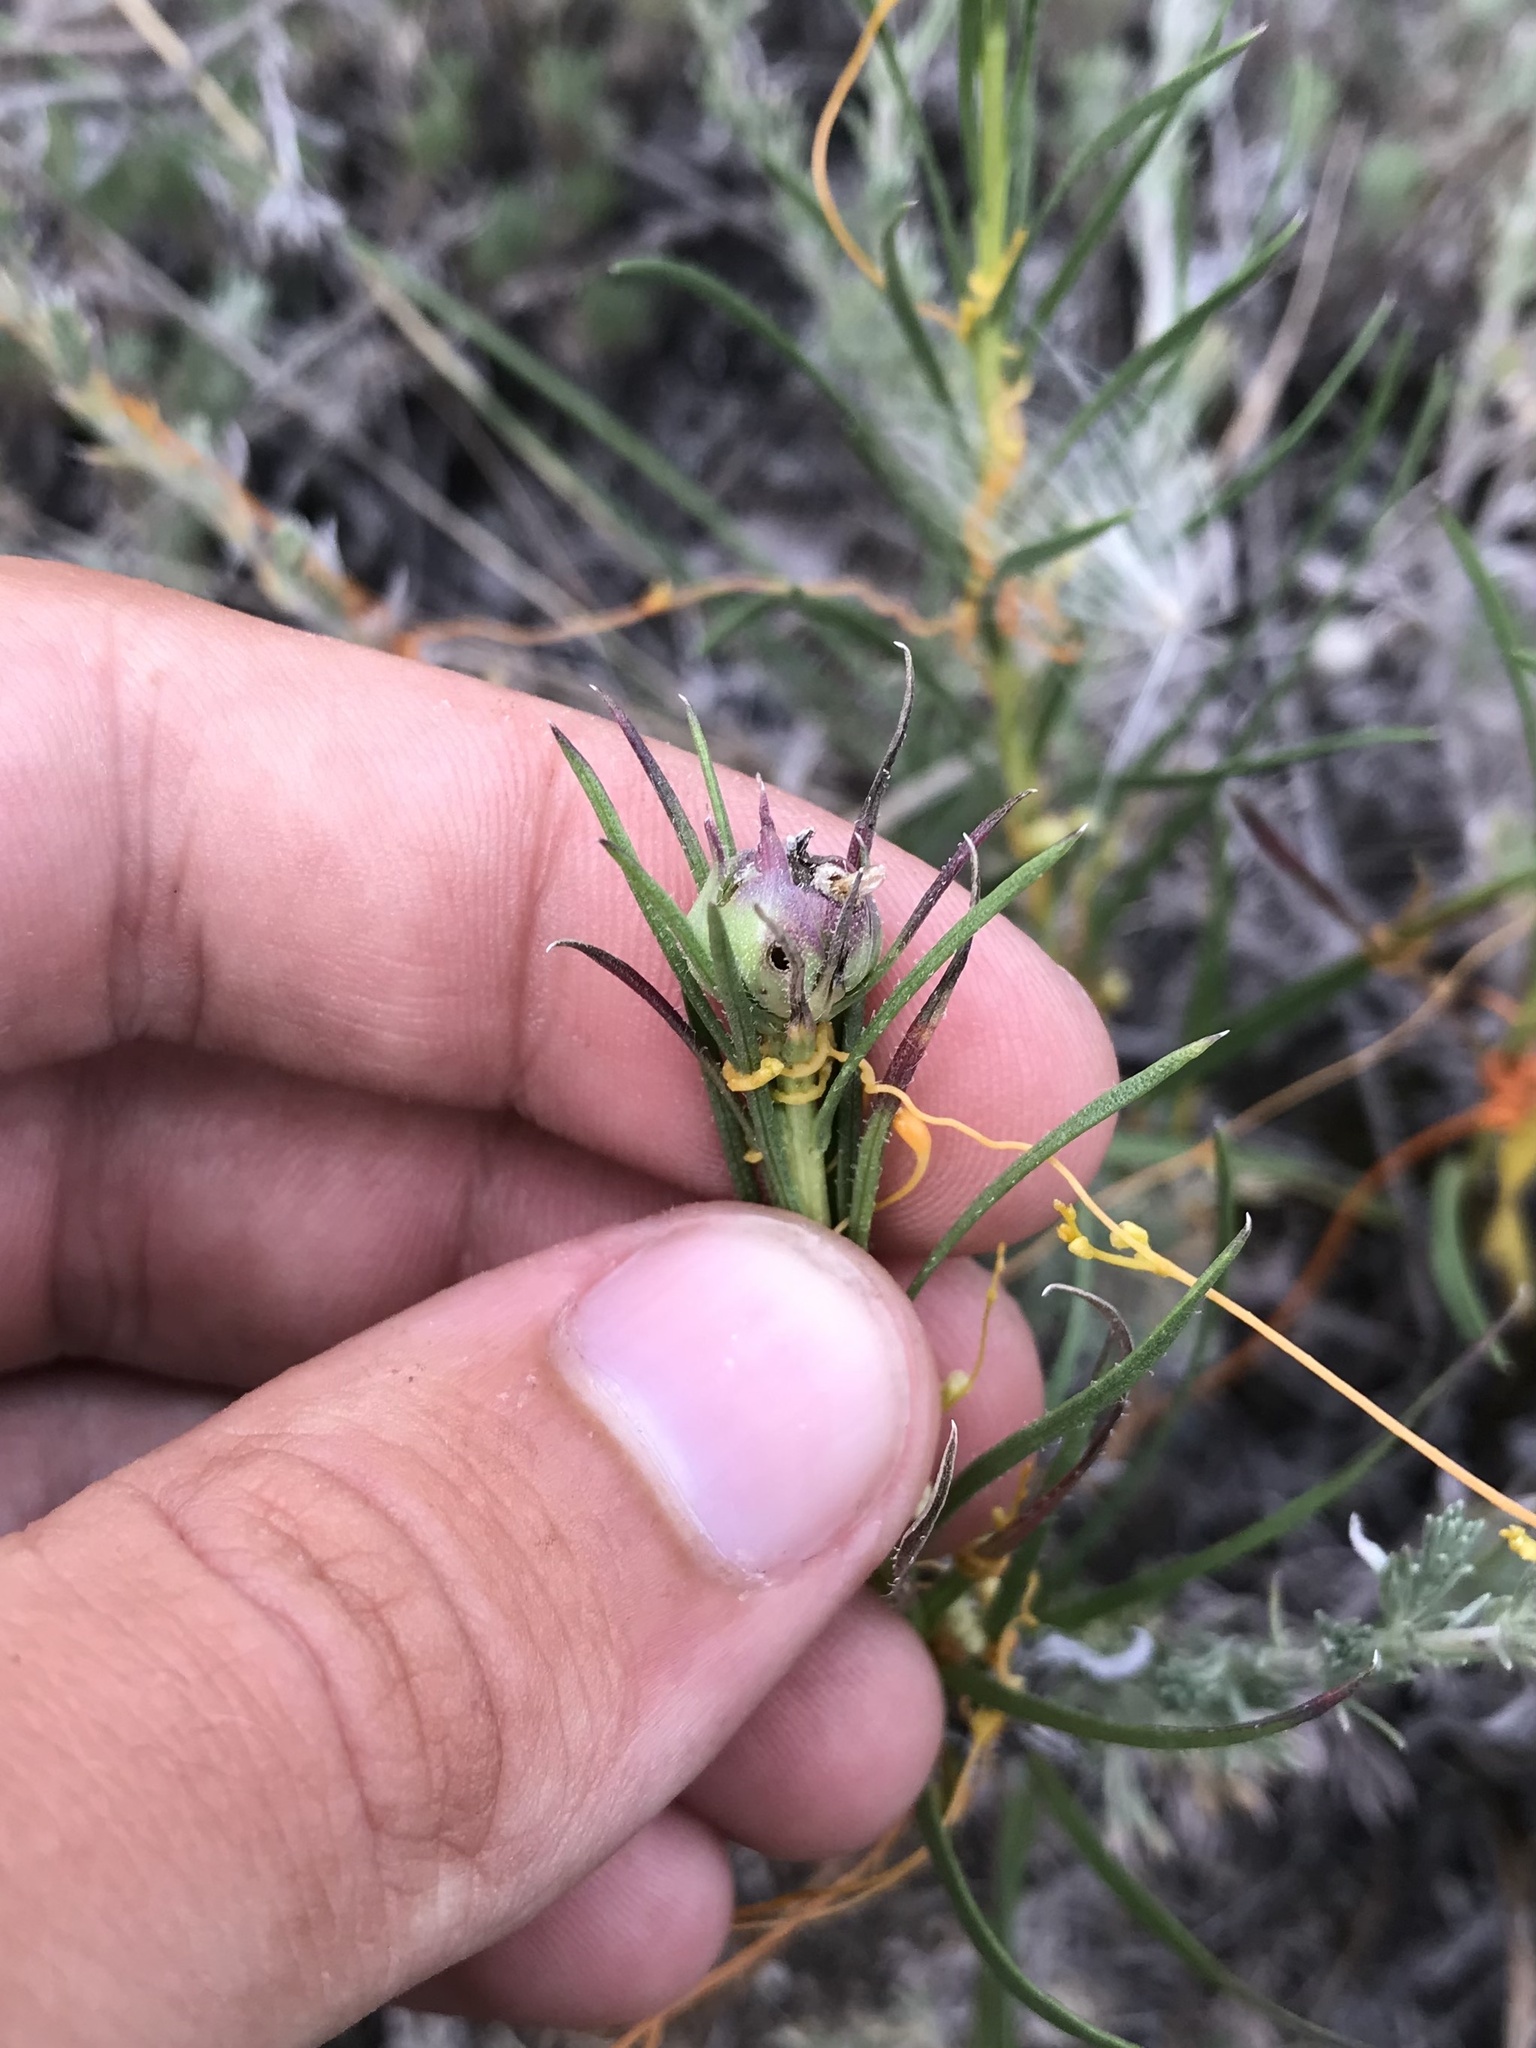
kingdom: Animalia
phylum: Arthropoda
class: Insecta
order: Diptera
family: Cecidomyiidae
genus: Asphondylia
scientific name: Asphondylia lacinariae
